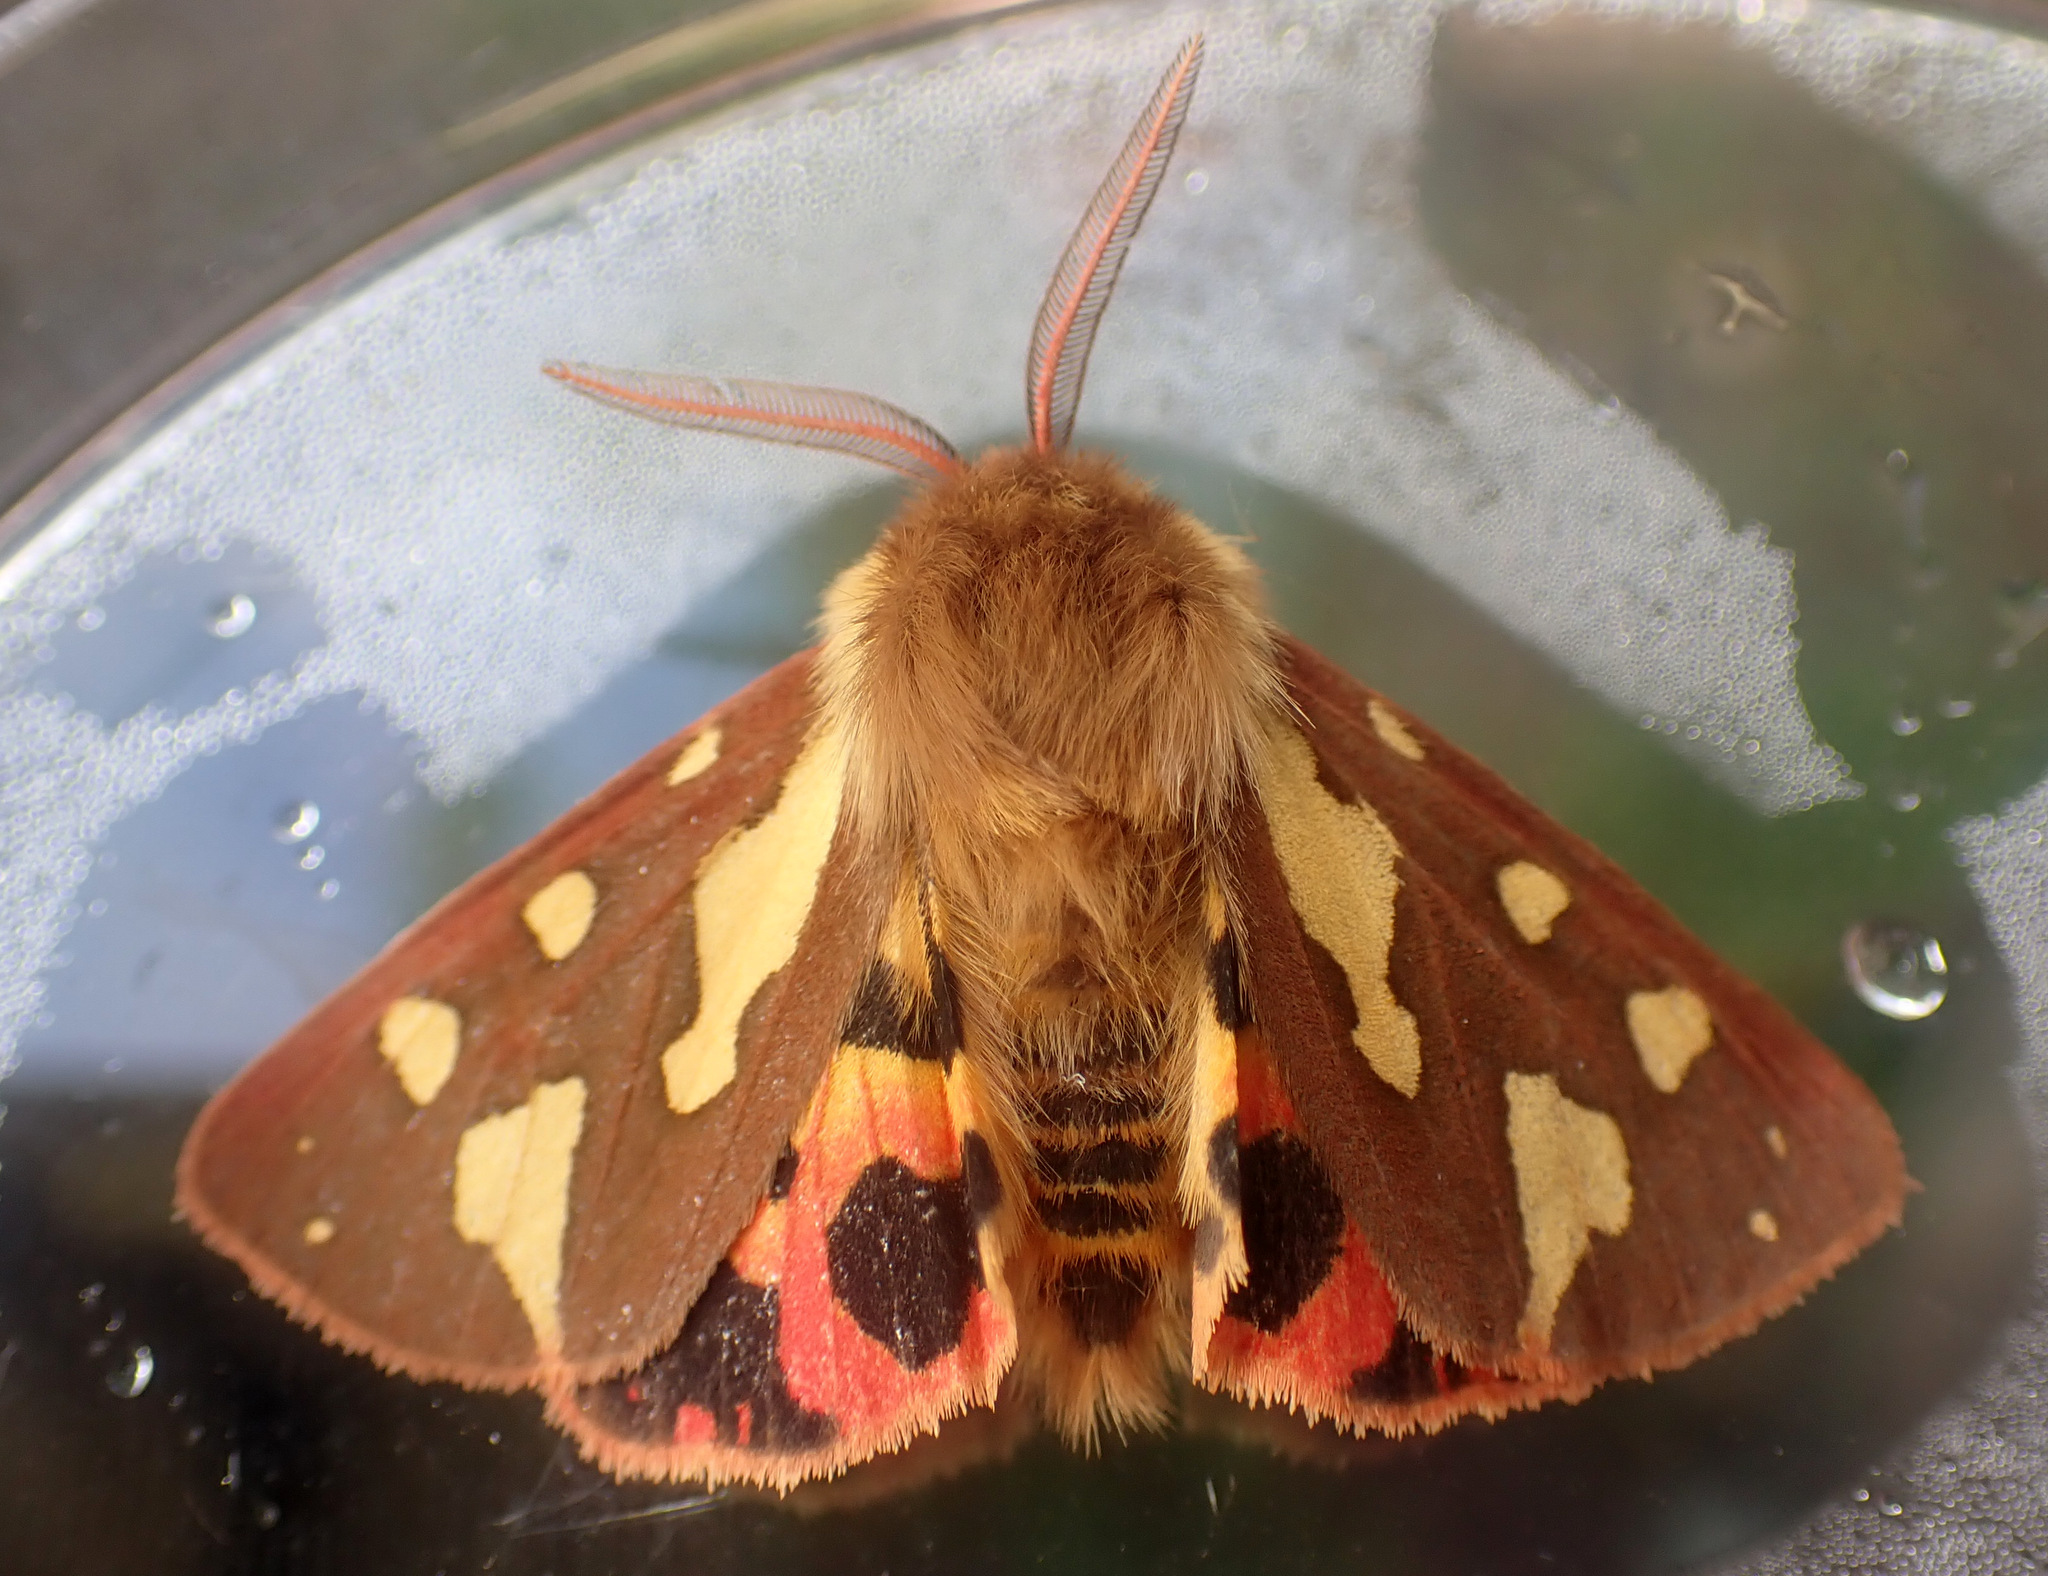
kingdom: Animalia
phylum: Arthropoda
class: Insecta
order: Lepidoptera
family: Erebidae
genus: Arctia
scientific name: Arctia testudinaria
